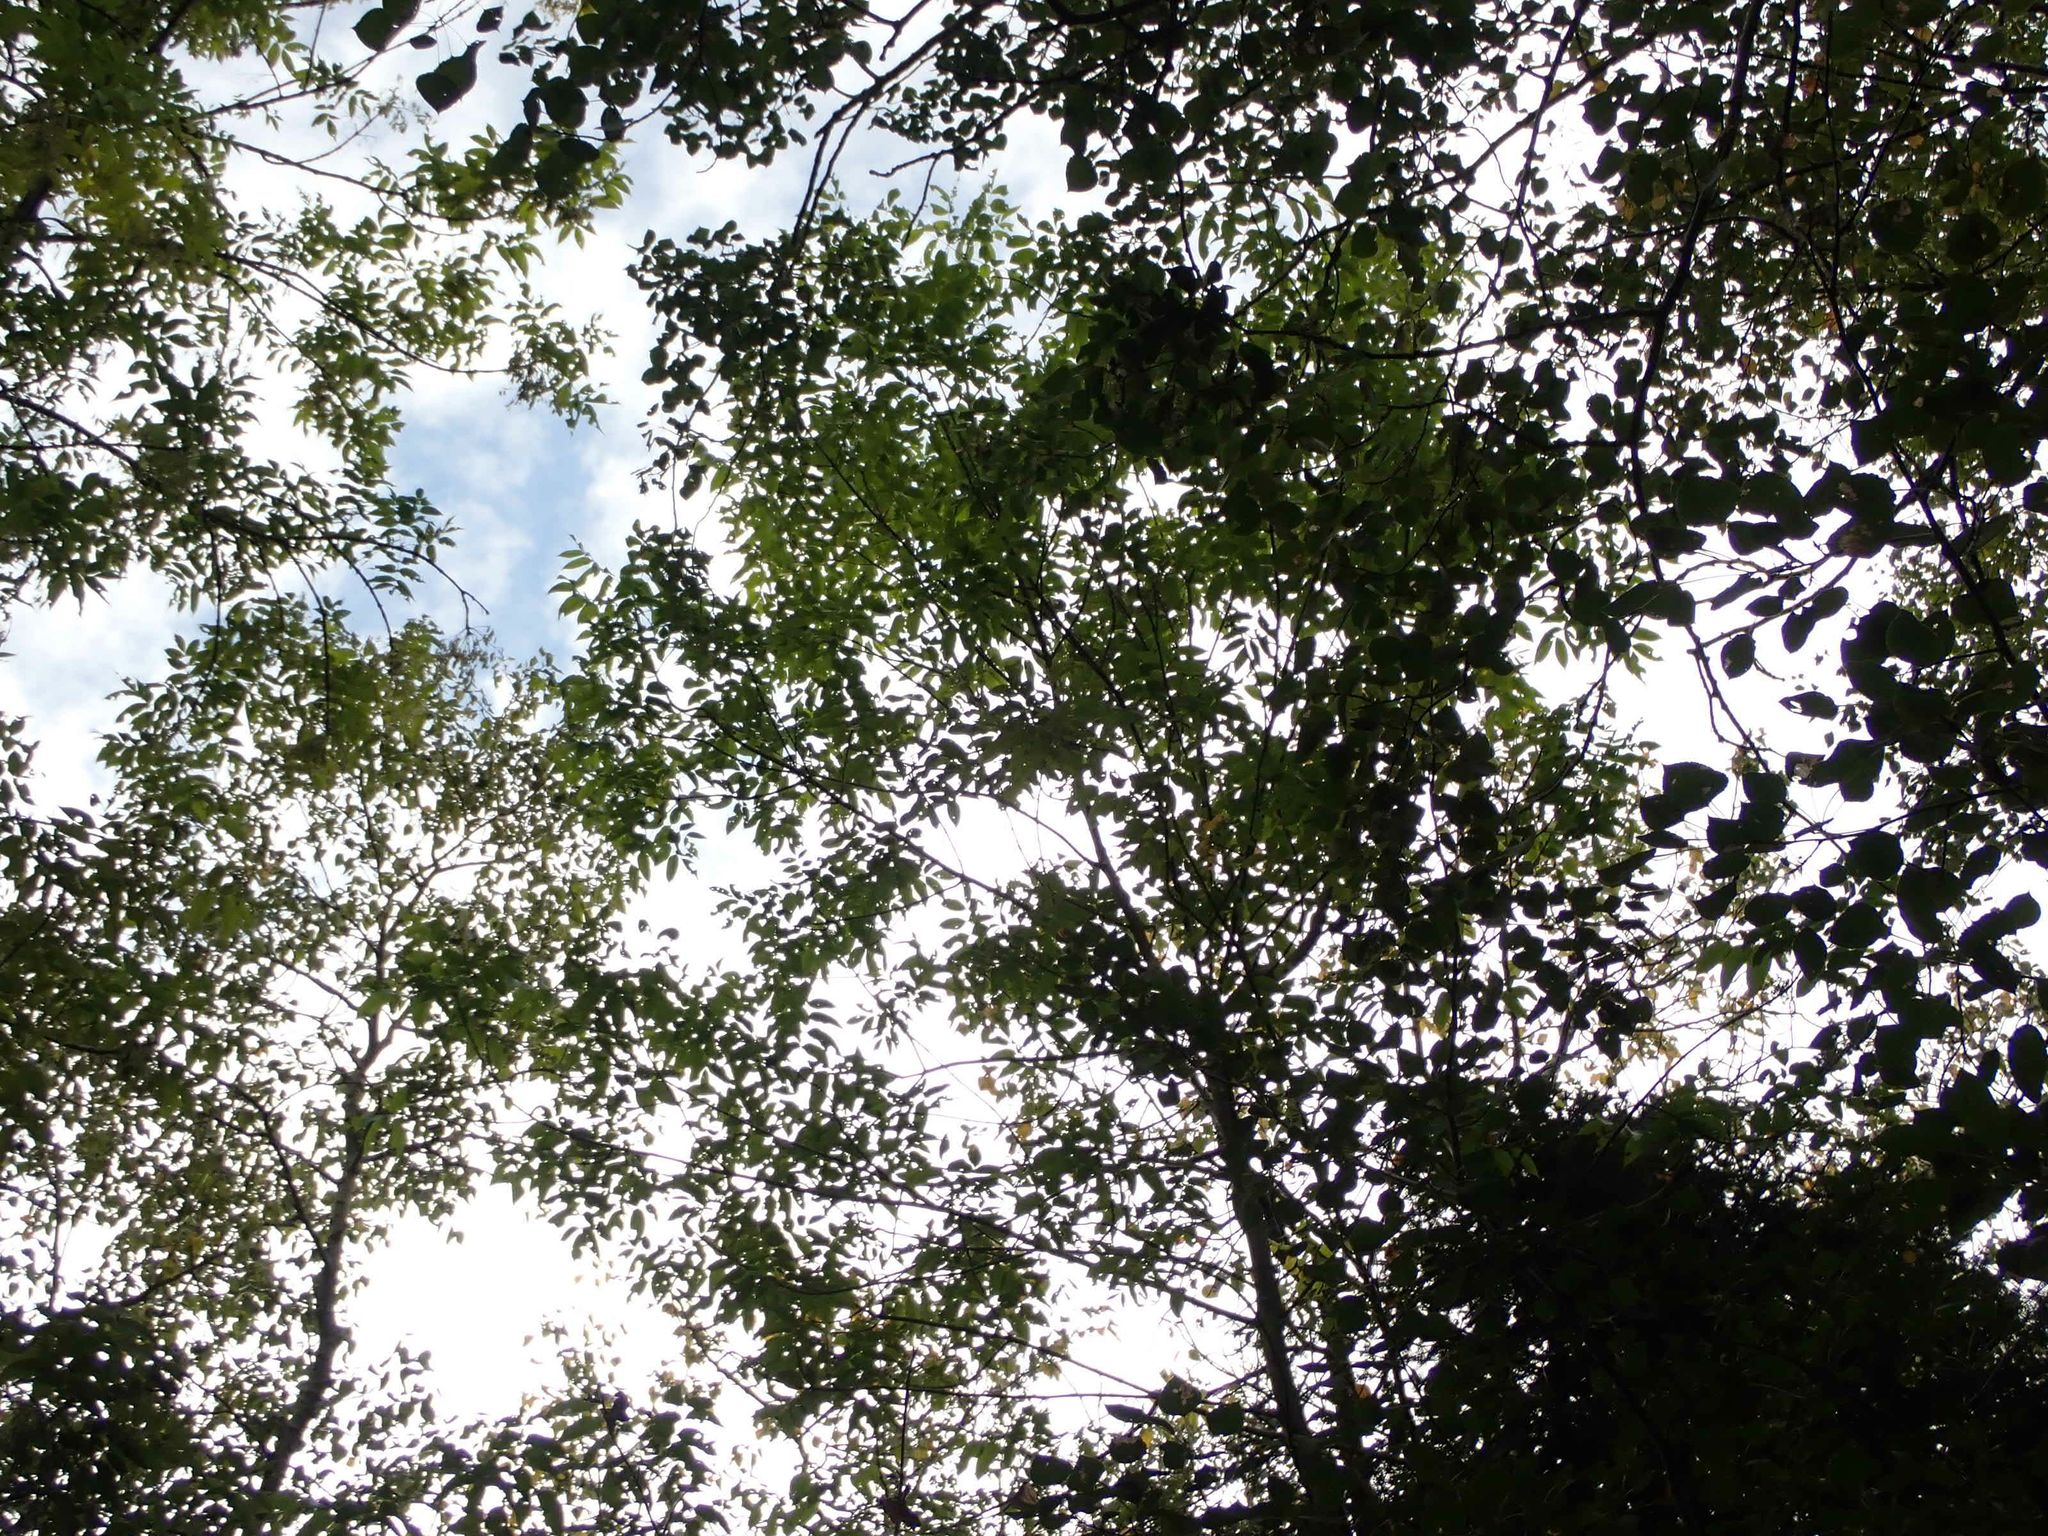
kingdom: Plantae
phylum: Tracheophyta
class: Magnoliopsida
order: Lamiales
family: Oleaceae
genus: Fraxinus
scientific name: Fraxinus pennsylvanica
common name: Green ash
